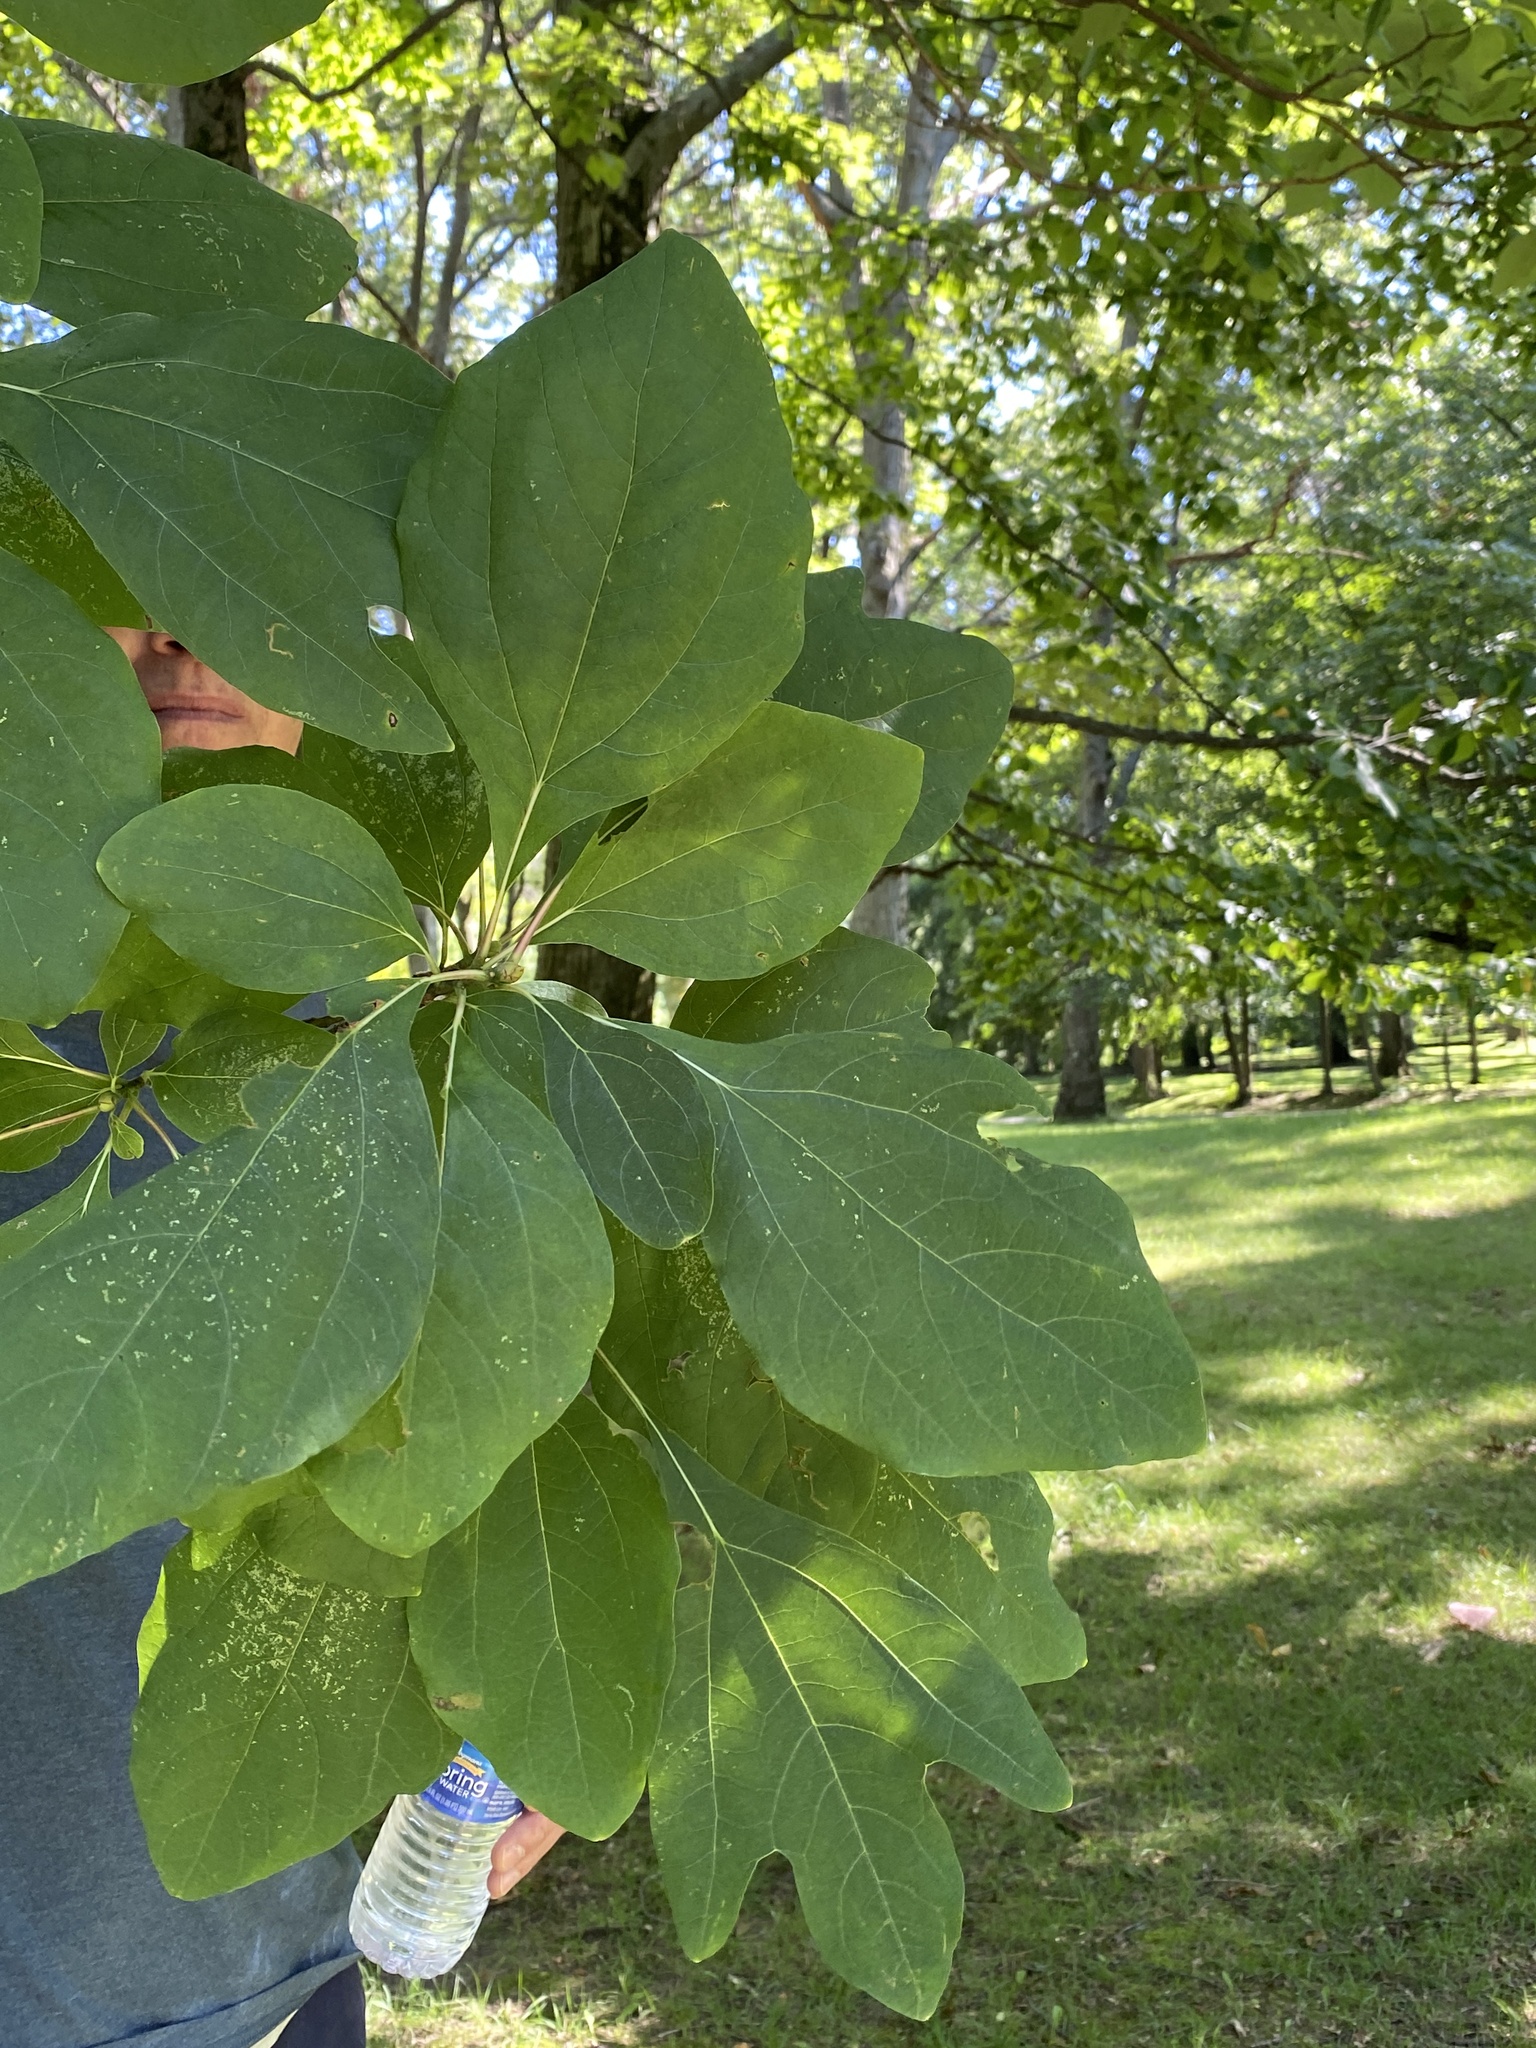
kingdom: Plantae
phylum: Tracheophyta
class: Magnoliopsida
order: Laurales
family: Lauraceae
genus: Sassafras
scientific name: Sassafras albidum
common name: Sassafras
